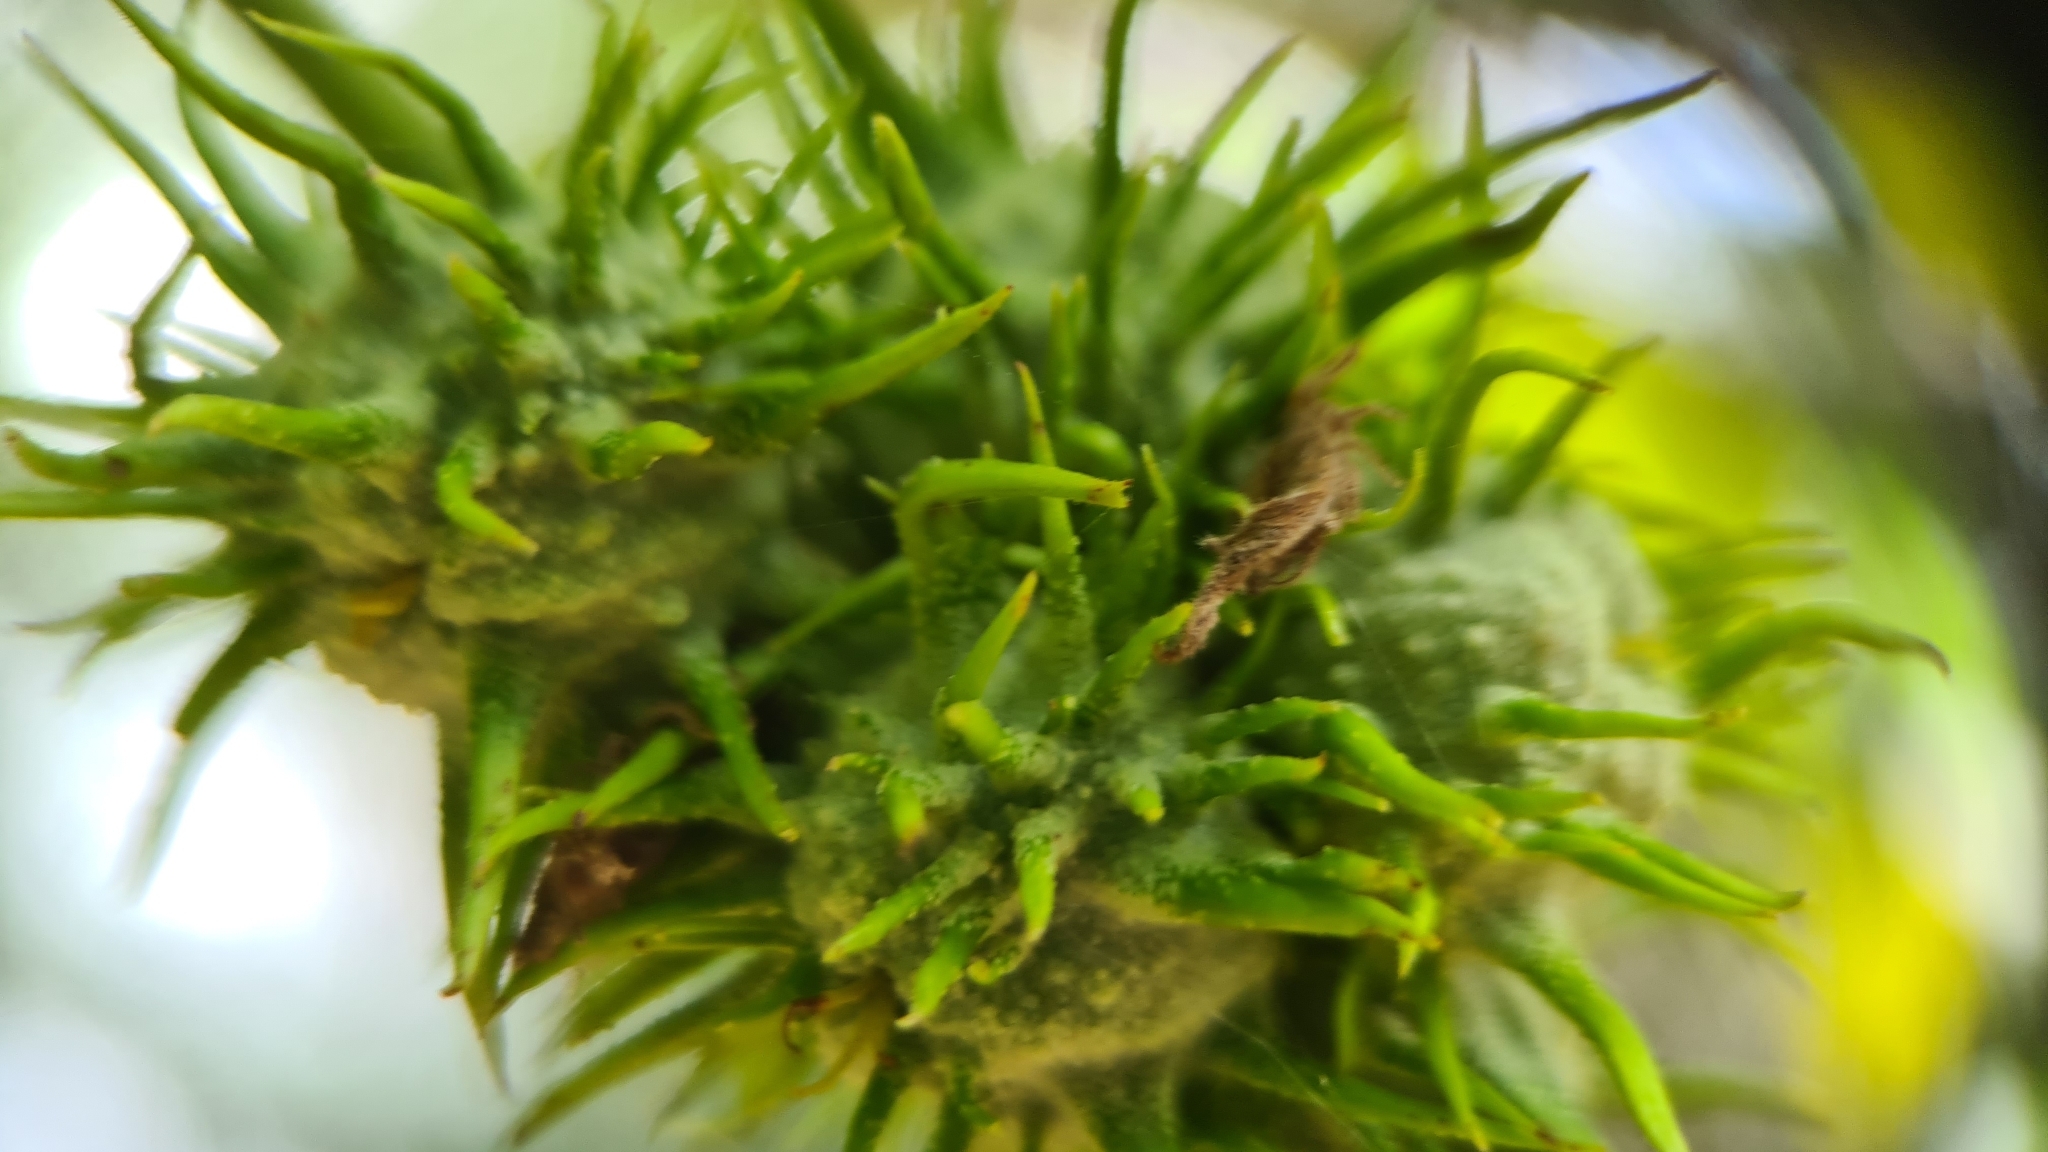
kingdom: Plantae
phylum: Tracheophyta
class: Magnoliopsida
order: Malpighiales
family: Euphorbiaceae
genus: Macaranga
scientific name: Macaranga tanarius
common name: Parasol leaf tree
